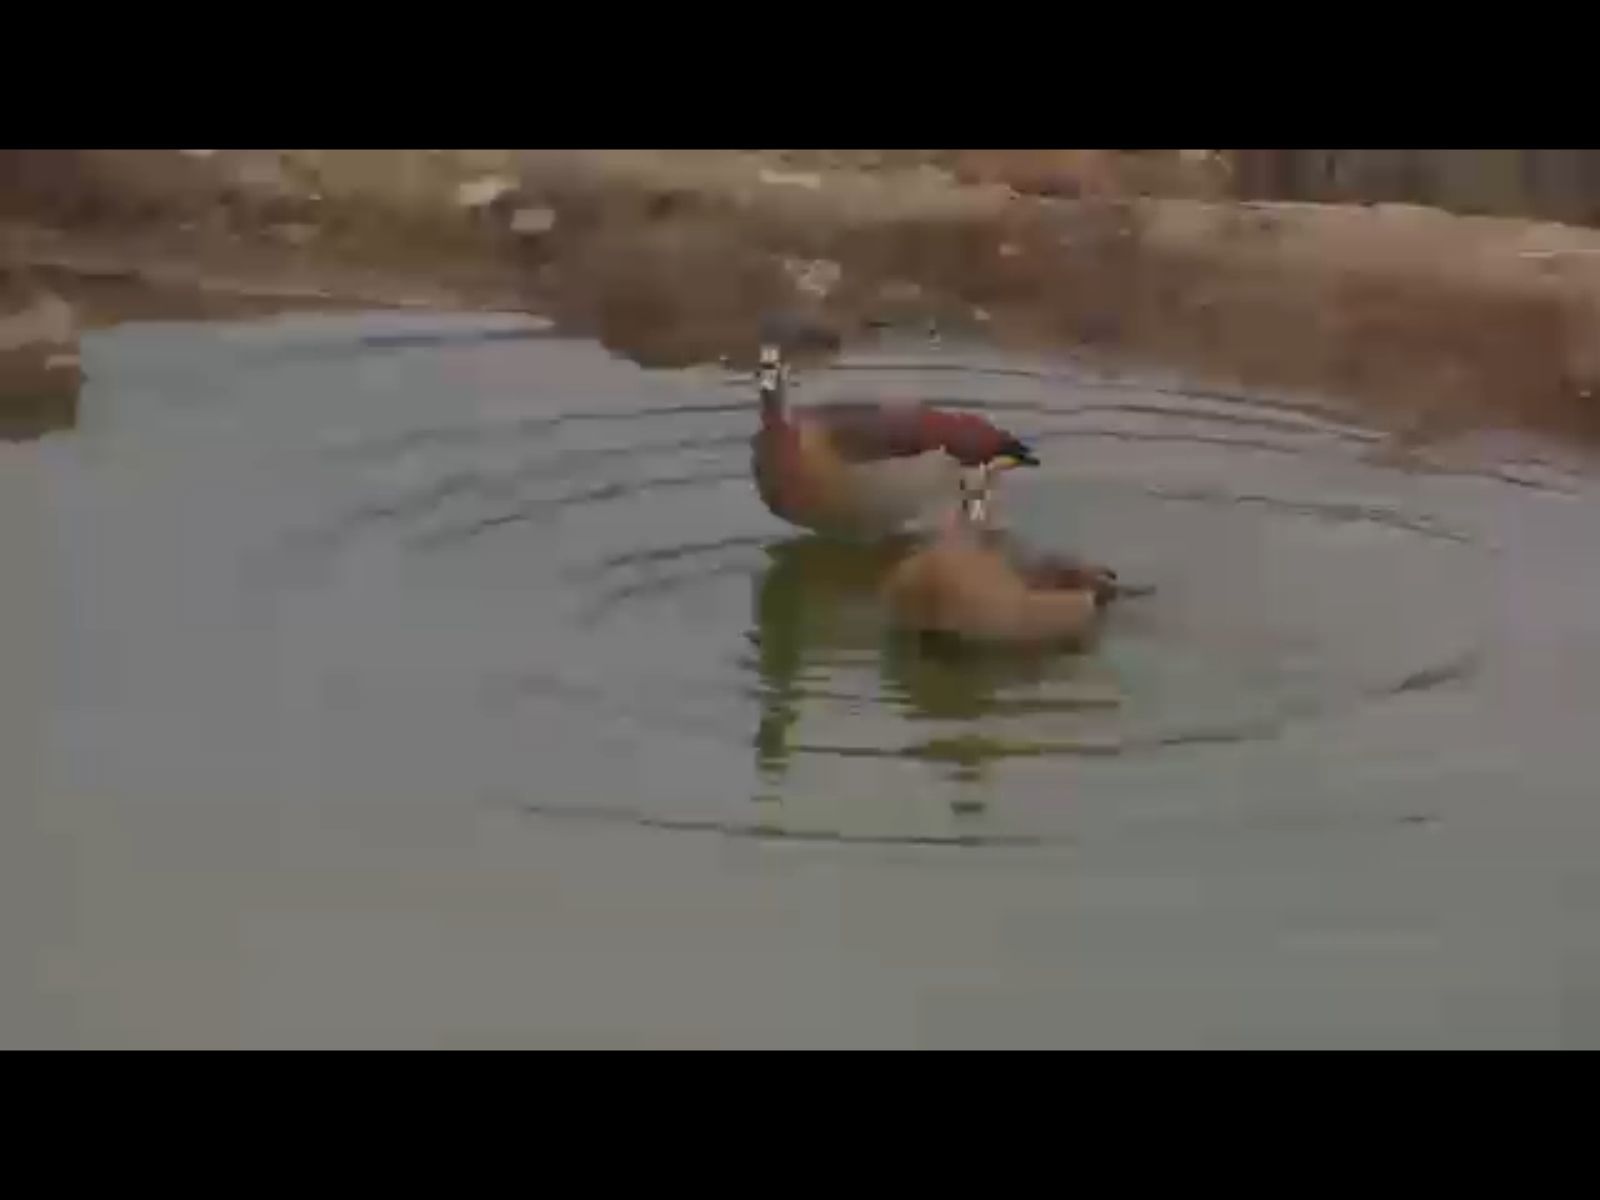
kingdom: Animalia
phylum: Chordata
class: Aves
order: Anseriformes
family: Anatidae
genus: Alopochen
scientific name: Alopochen aegyptiaca
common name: Egyptian goose
